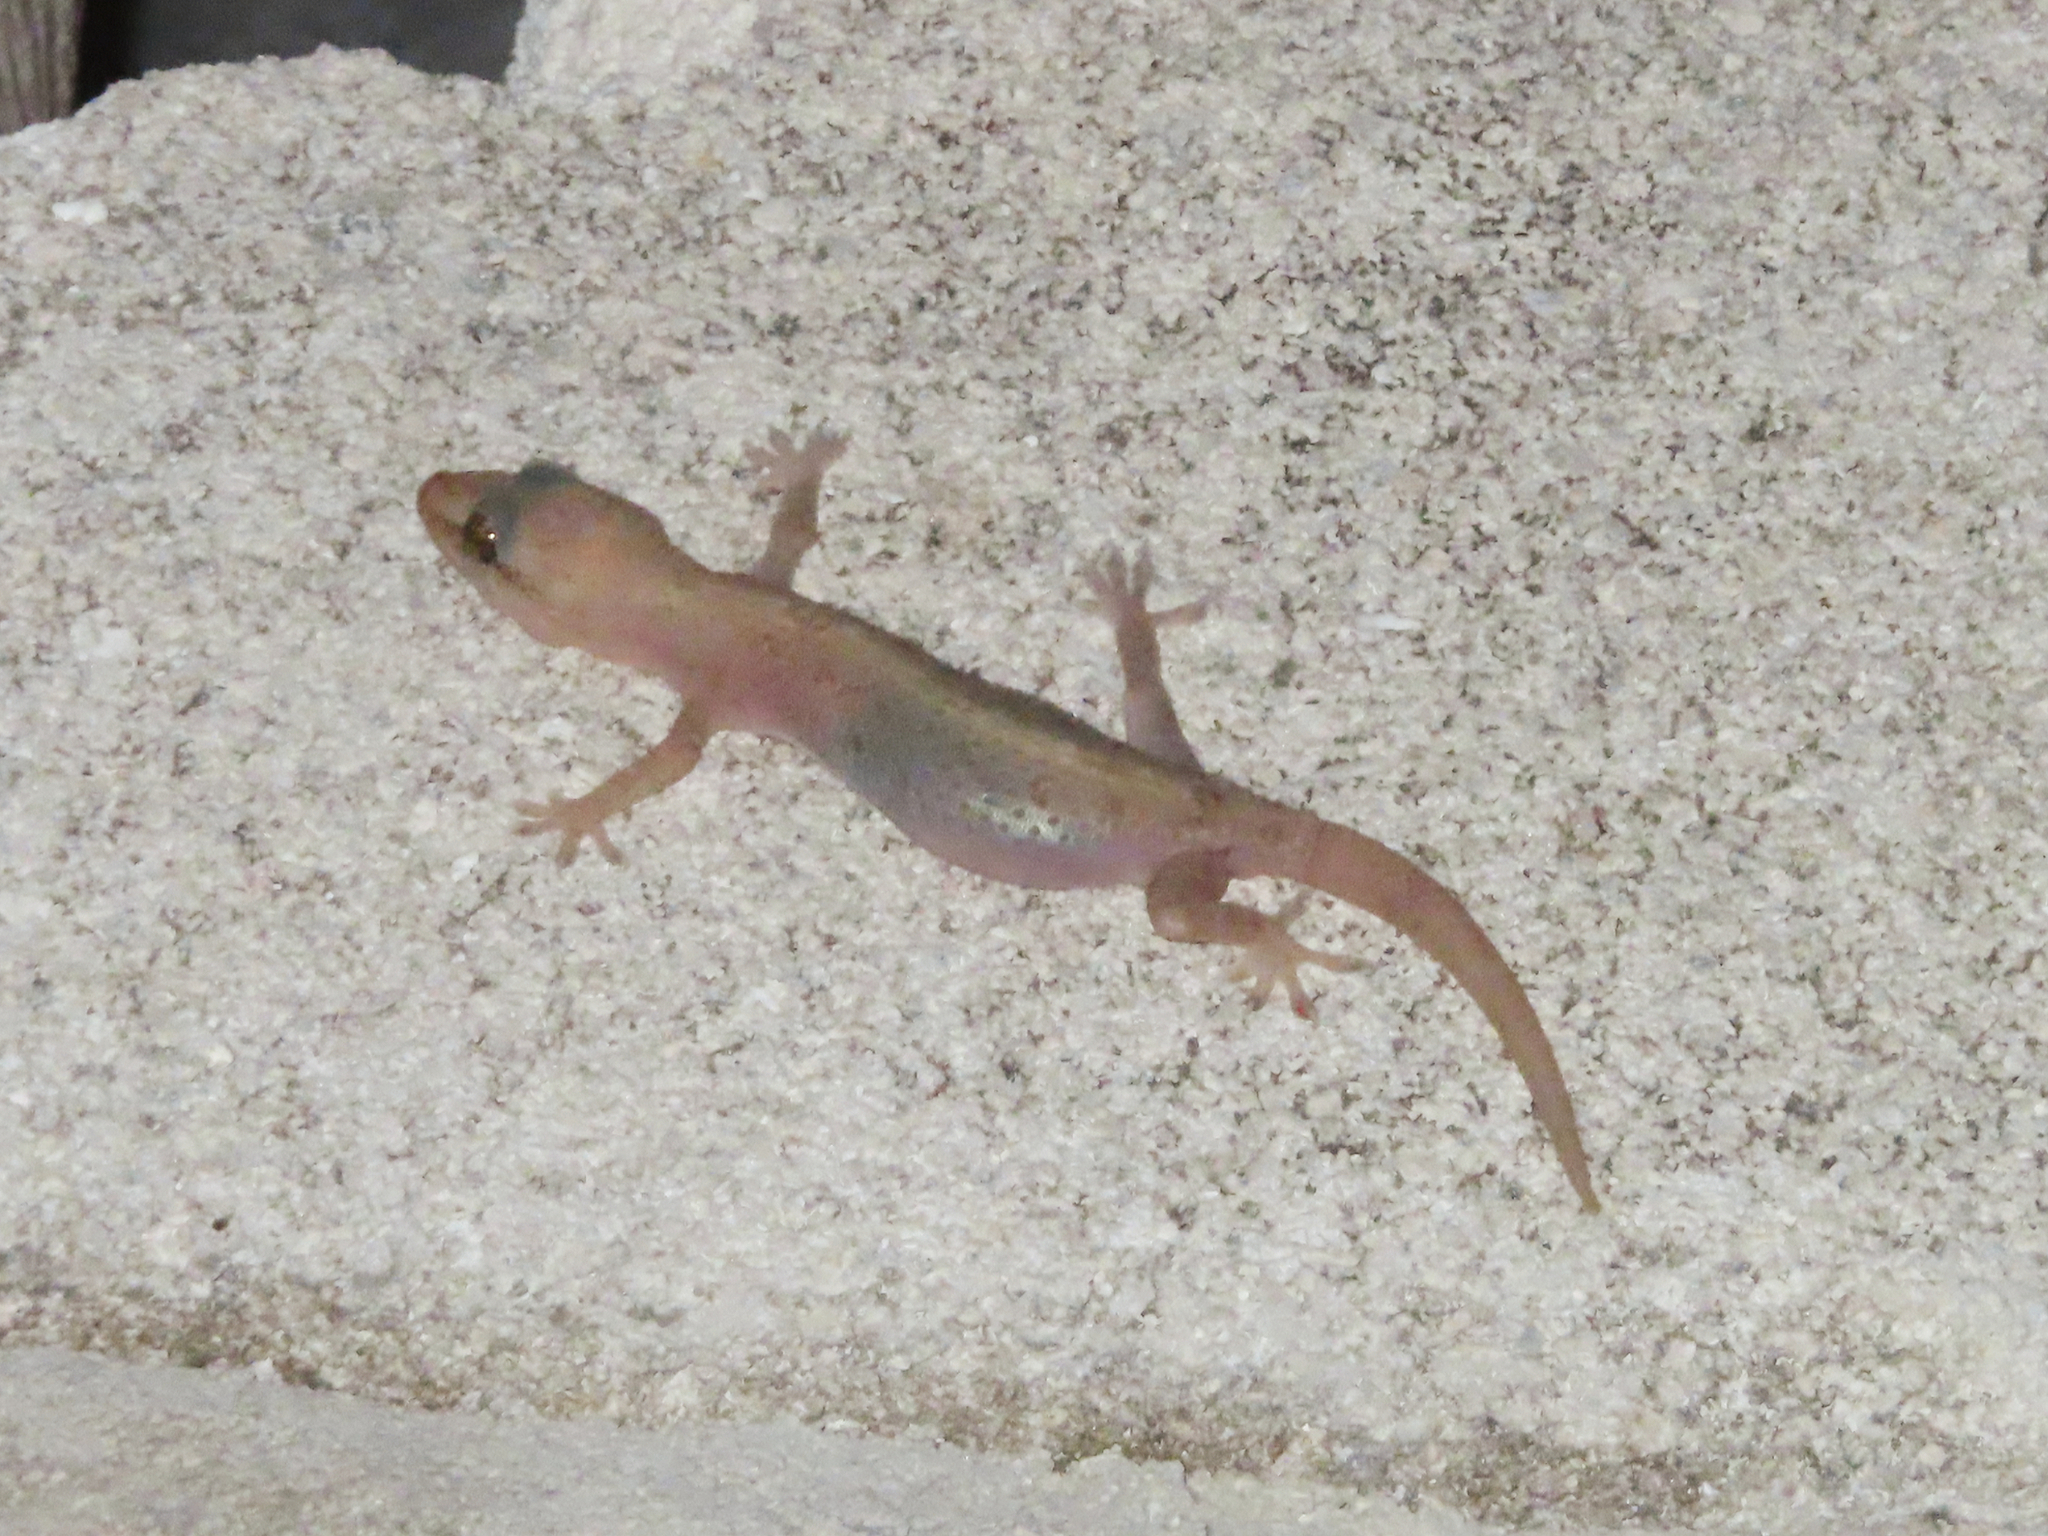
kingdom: Animalia
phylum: Chordata
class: Squamata
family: Gekkonidae
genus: Hemidactylus
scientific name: Hemidactylus frenatus
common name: Common house gecko
